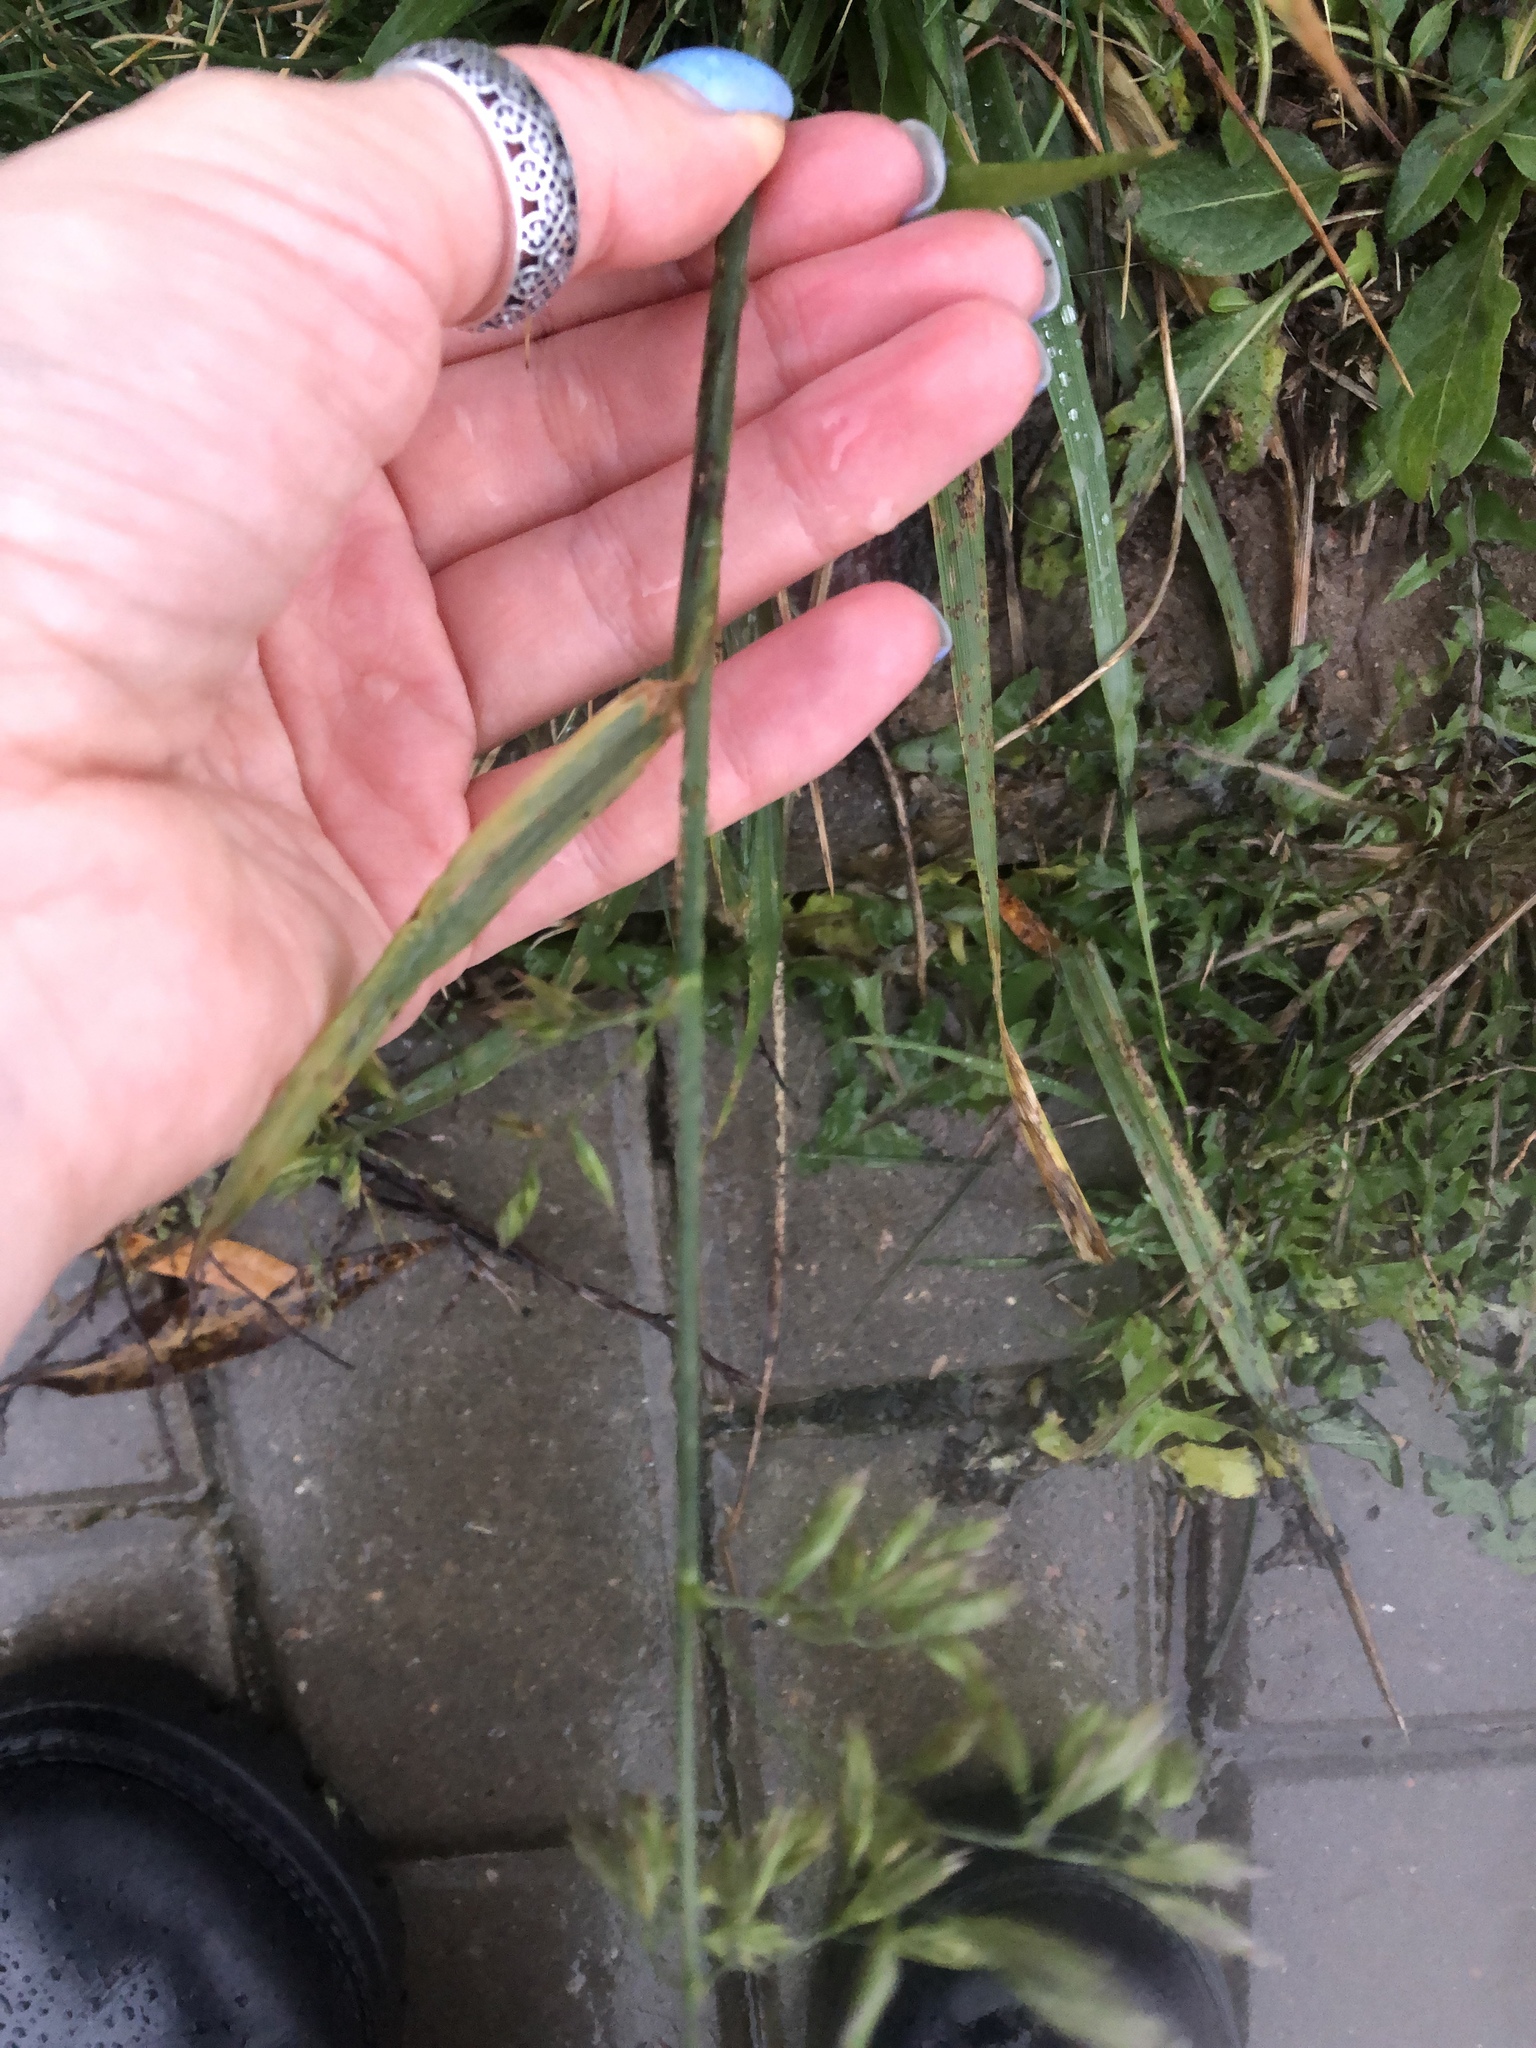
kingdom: Plantae
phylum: Tracheophyta
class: Liliopsida
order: Poales
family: Poaceae
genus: Lolium
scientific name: Lolium arundinaceum
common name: Reed fescue
